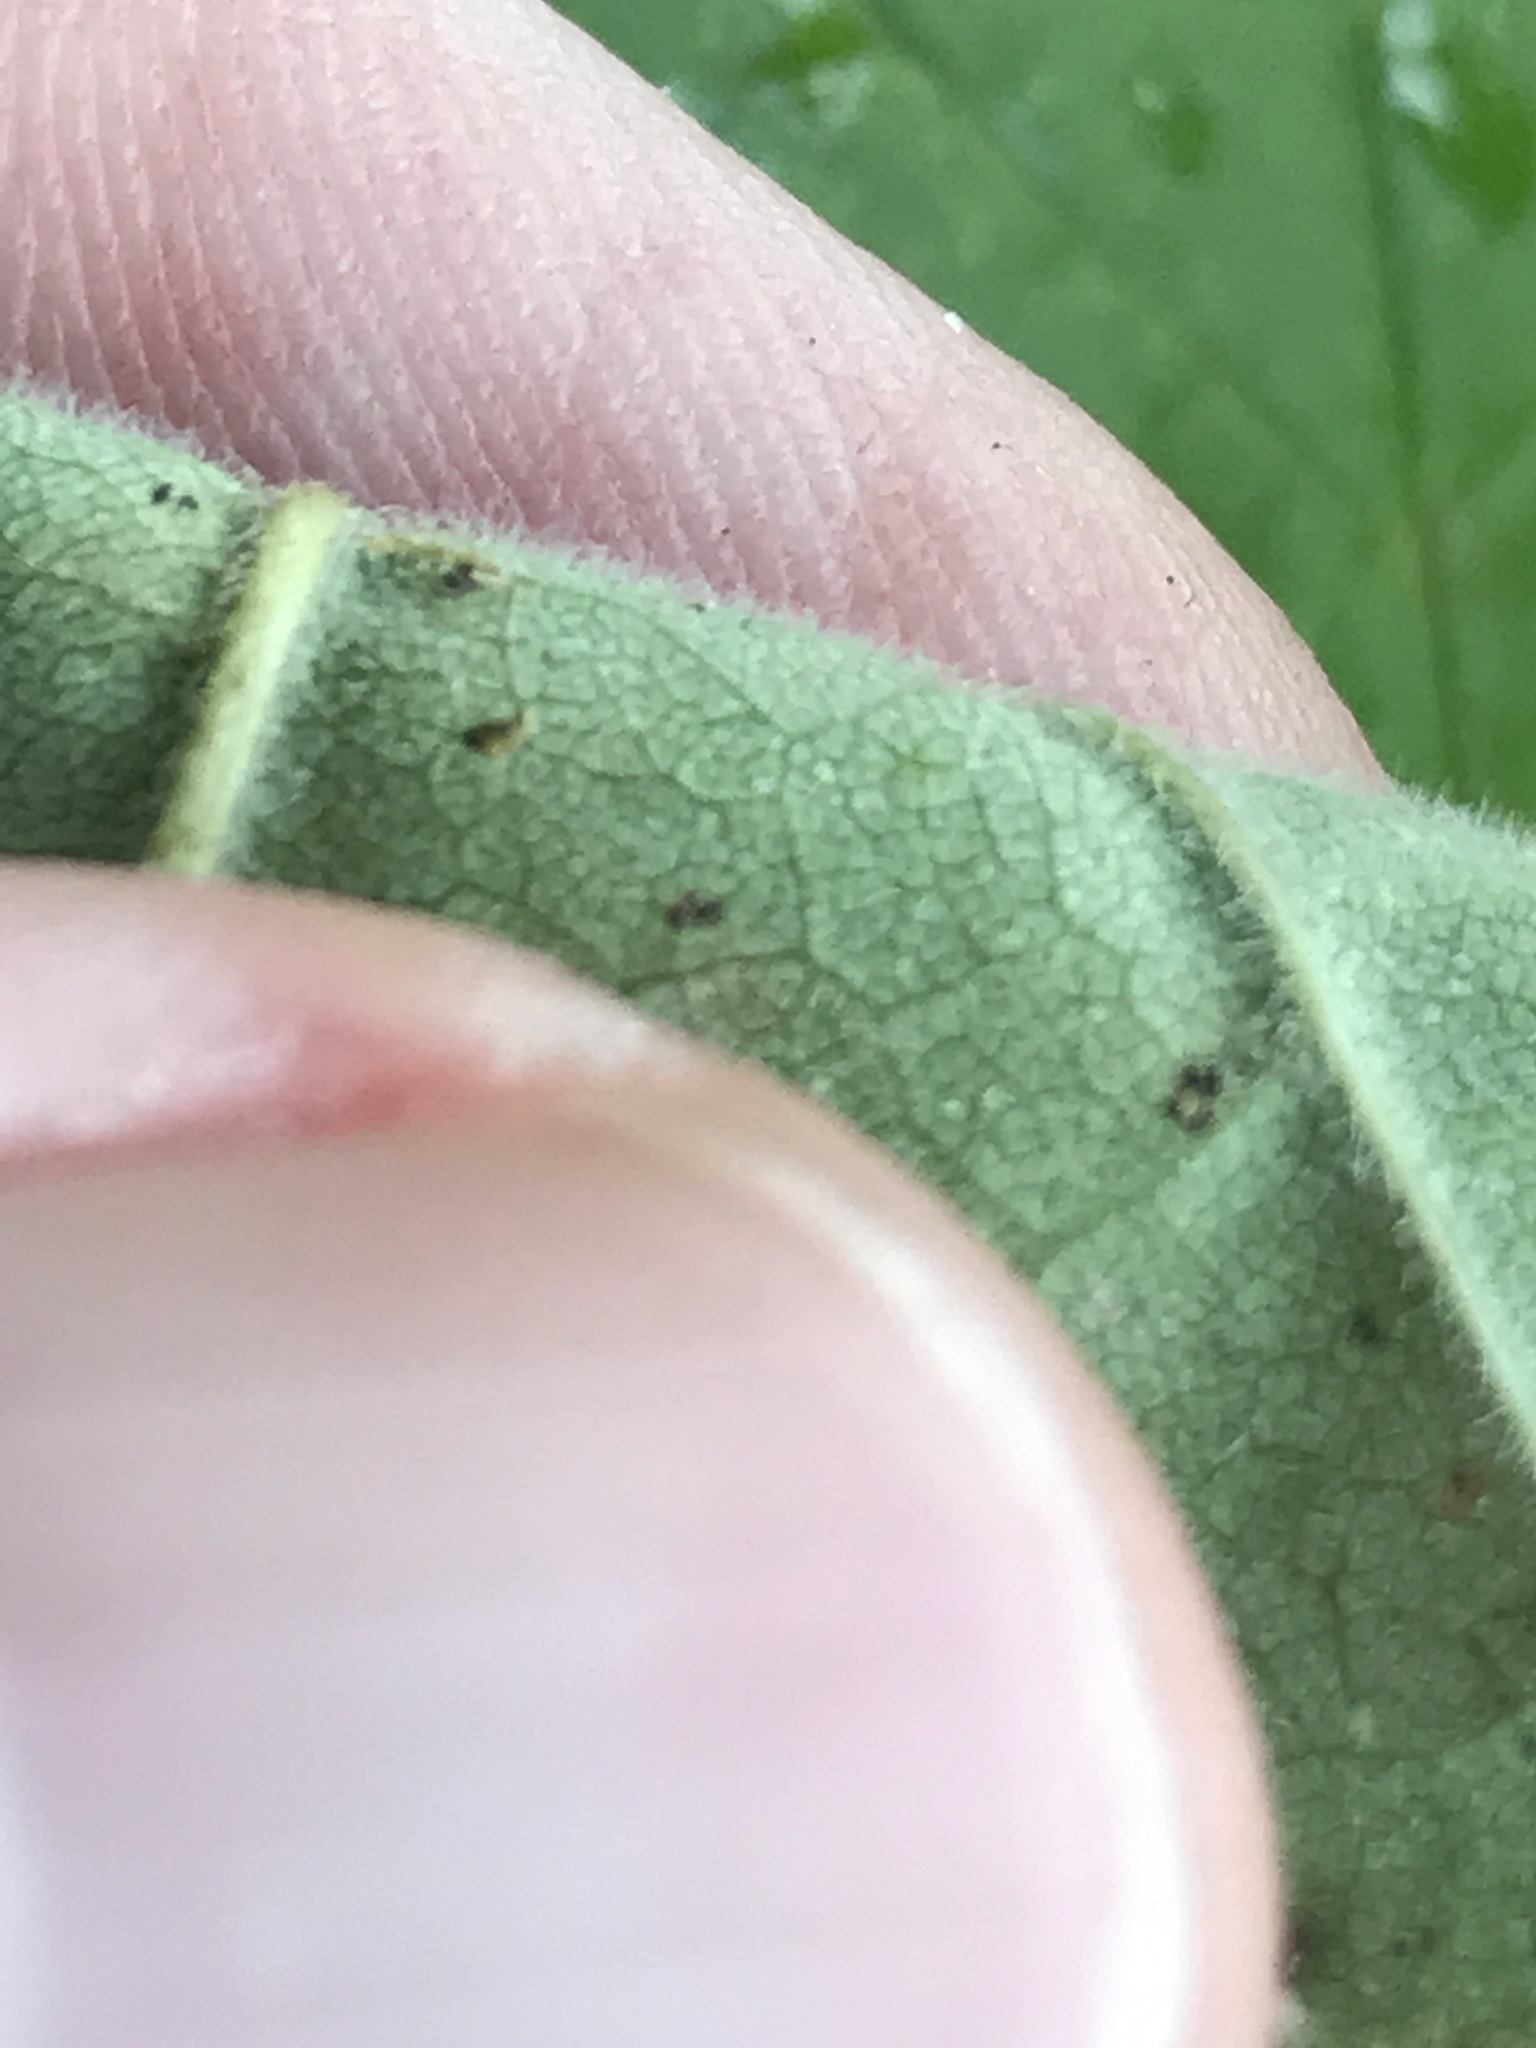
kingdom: Plantae
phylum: Tracheophyta
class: Magnoliopsida
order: Lamiales
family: Oleaceae
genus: Fraxinus
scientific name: Fraxinus americana
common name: White ash
